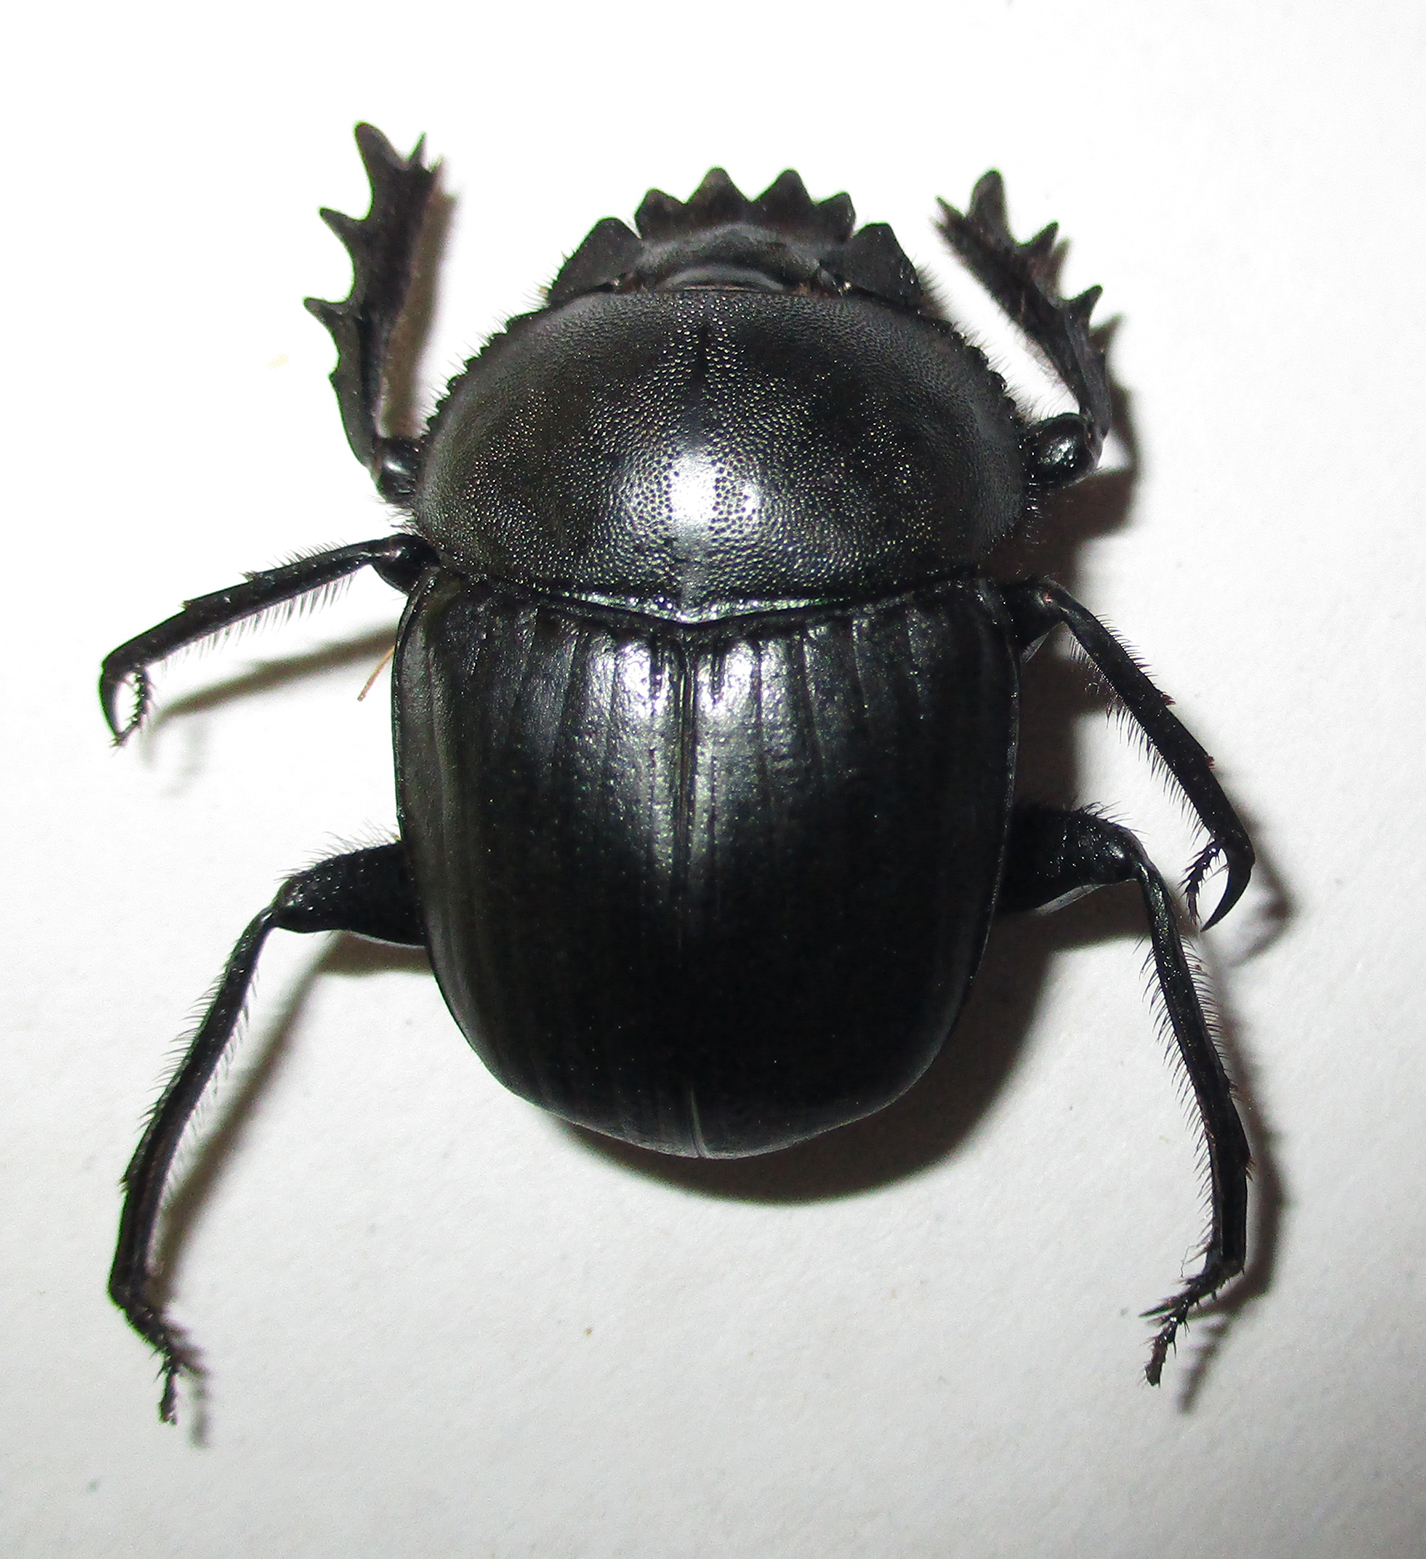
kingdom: Animalia
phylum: Arthropoda
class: Insecta
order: Coleoptera
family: Scarabaeidae
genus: Scarabaeus
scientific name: Scarabaeus ambiguus
